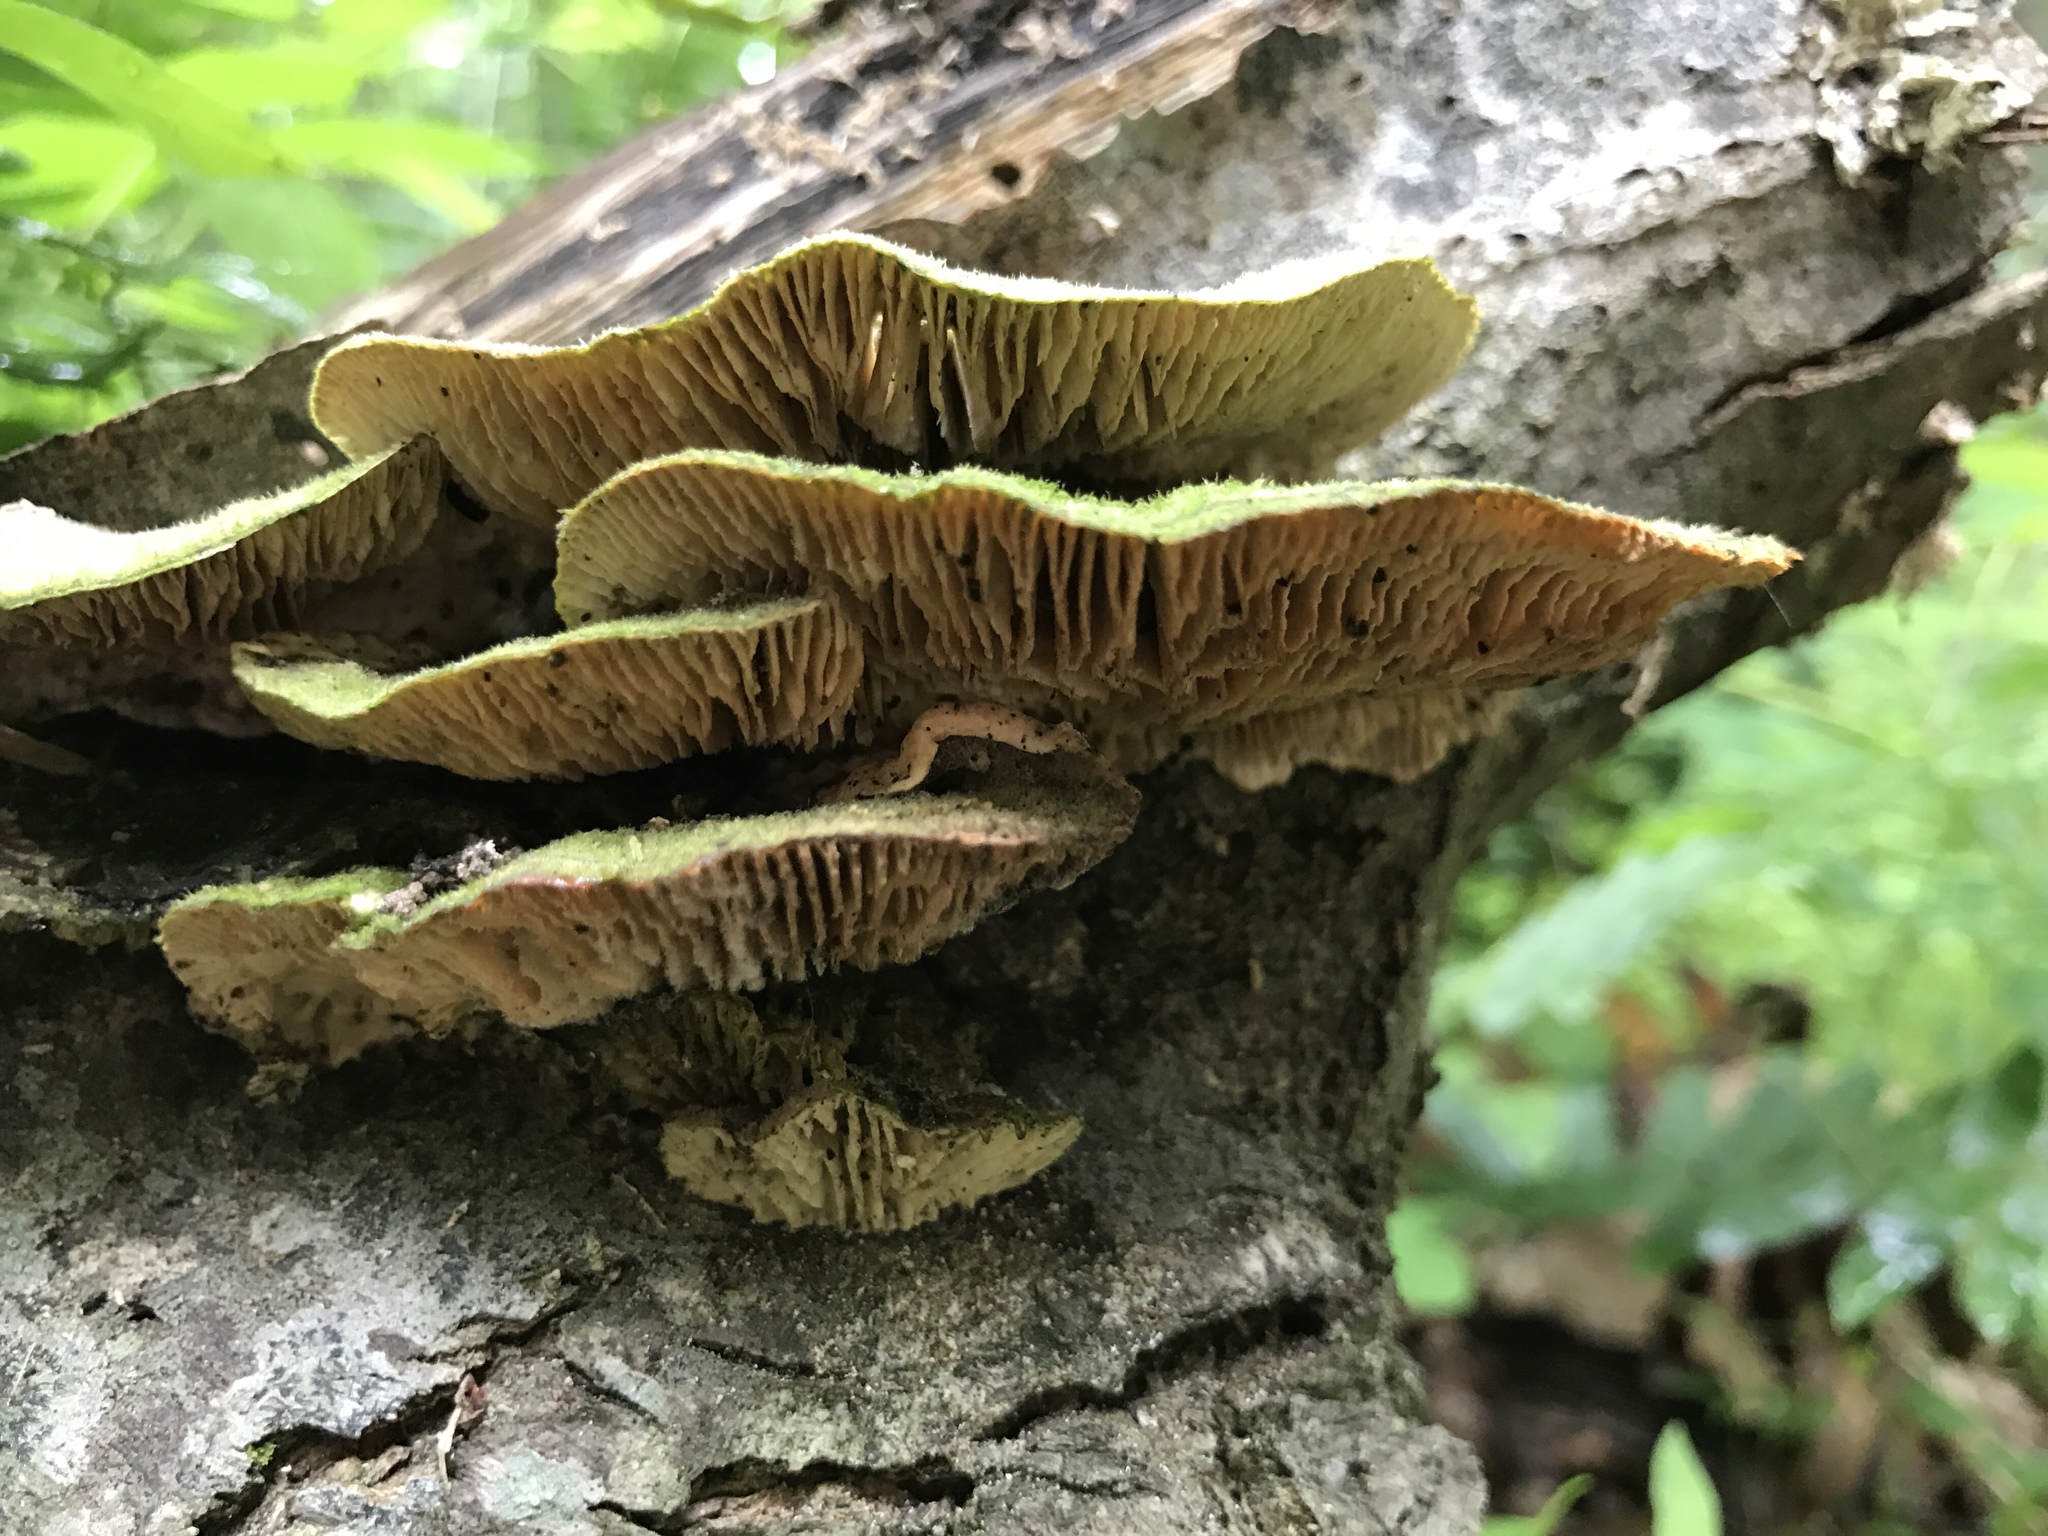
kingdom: Fungi
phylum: Basidiomycota
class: Agaricomycetes
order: Polyporales
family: Polyporaceae
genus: Lenzites
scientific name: Lenzites betulinus
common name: Birch mazegill
